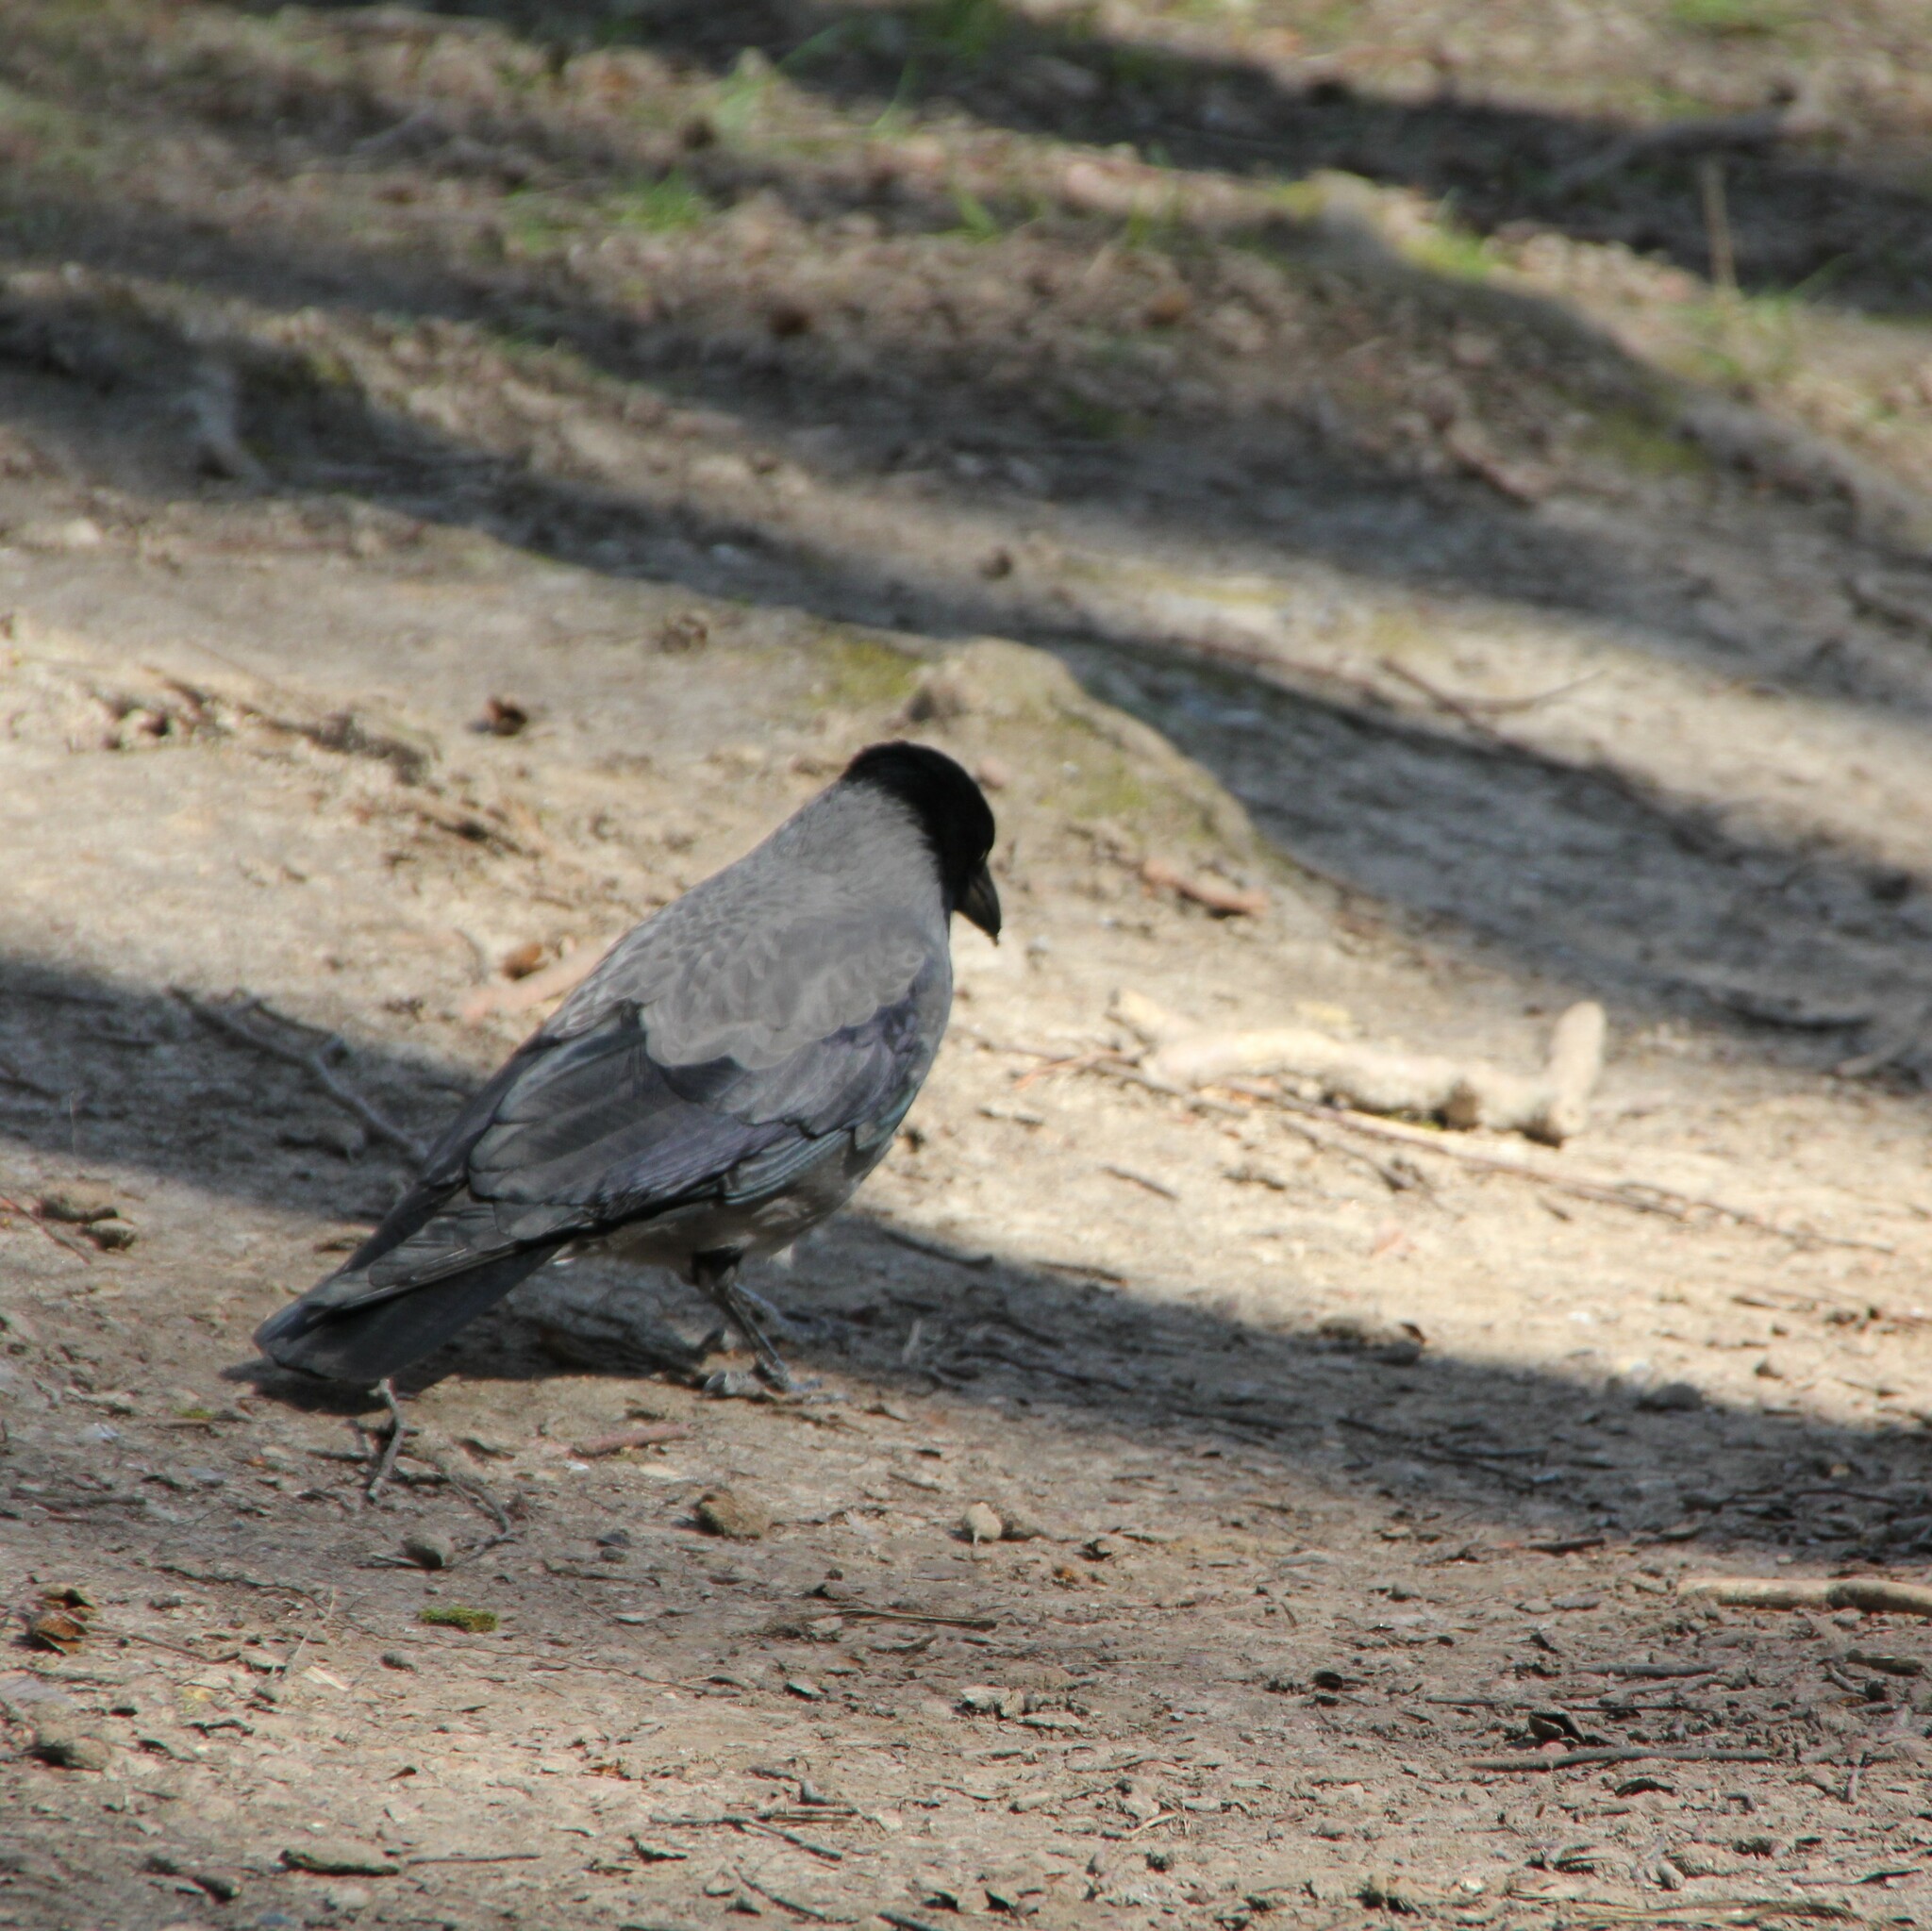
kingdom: Animalia
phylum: Chordata
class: Aves
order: Passeriformes
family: Corvidae
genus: Corvus
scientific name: Corvus cornix
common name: Hooded crow
